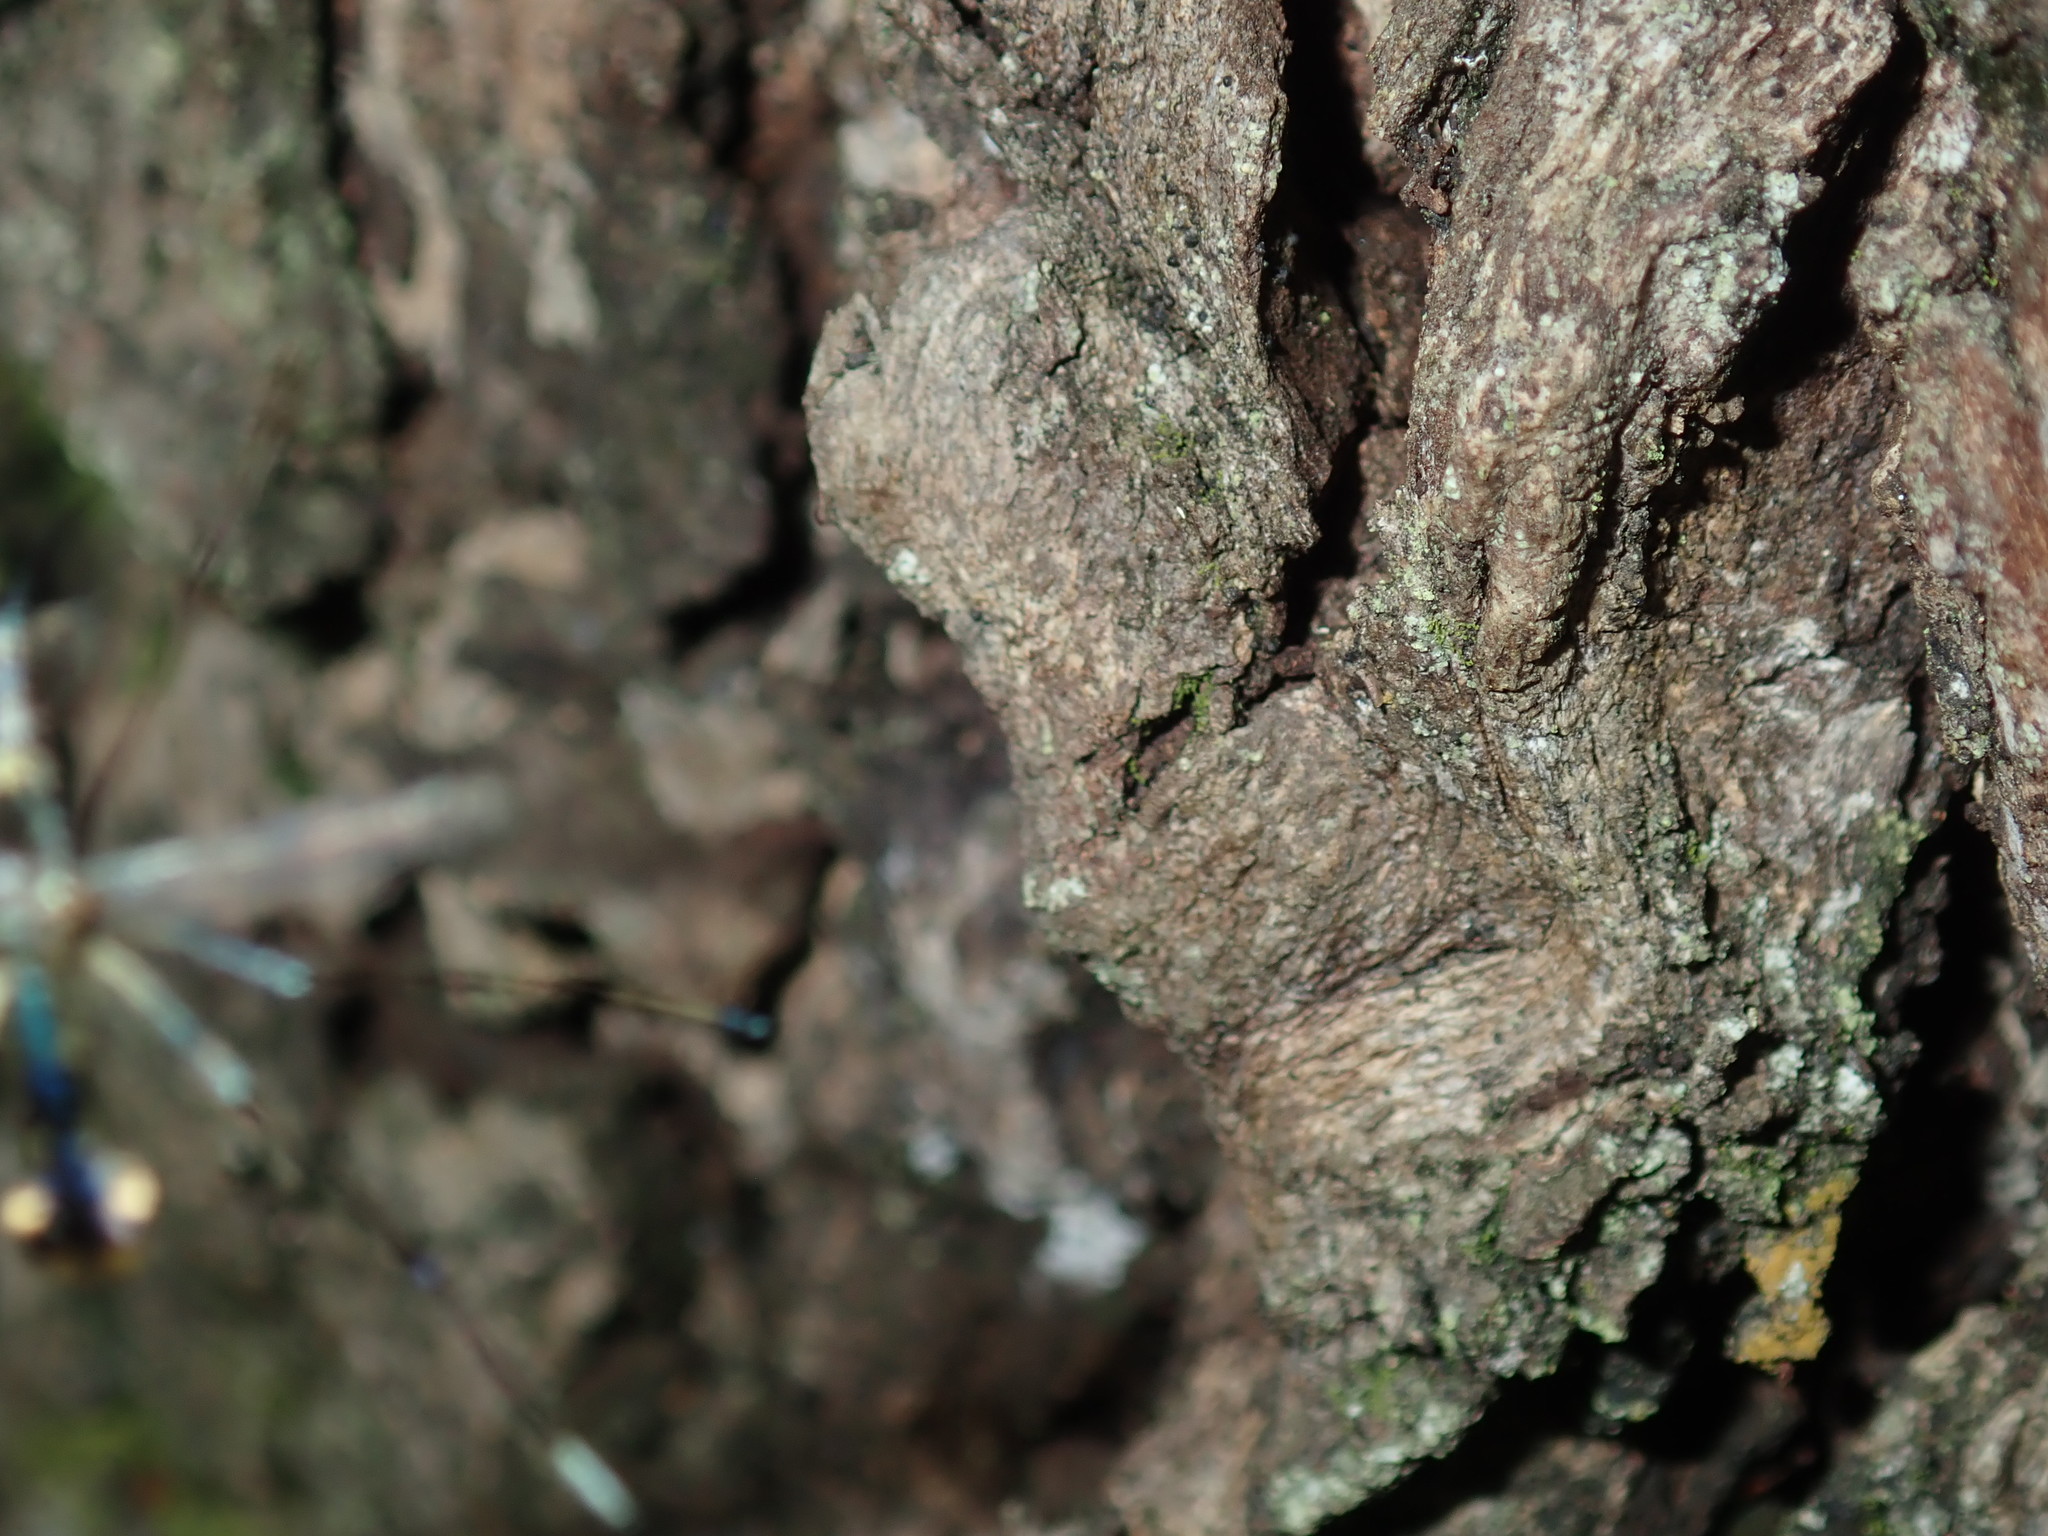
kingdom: Animalia
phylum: Arthropoda
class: Insecta
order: Diptera
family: Culicidae
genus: Toxorhynchites
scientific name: Toxorhynchites speciosus
